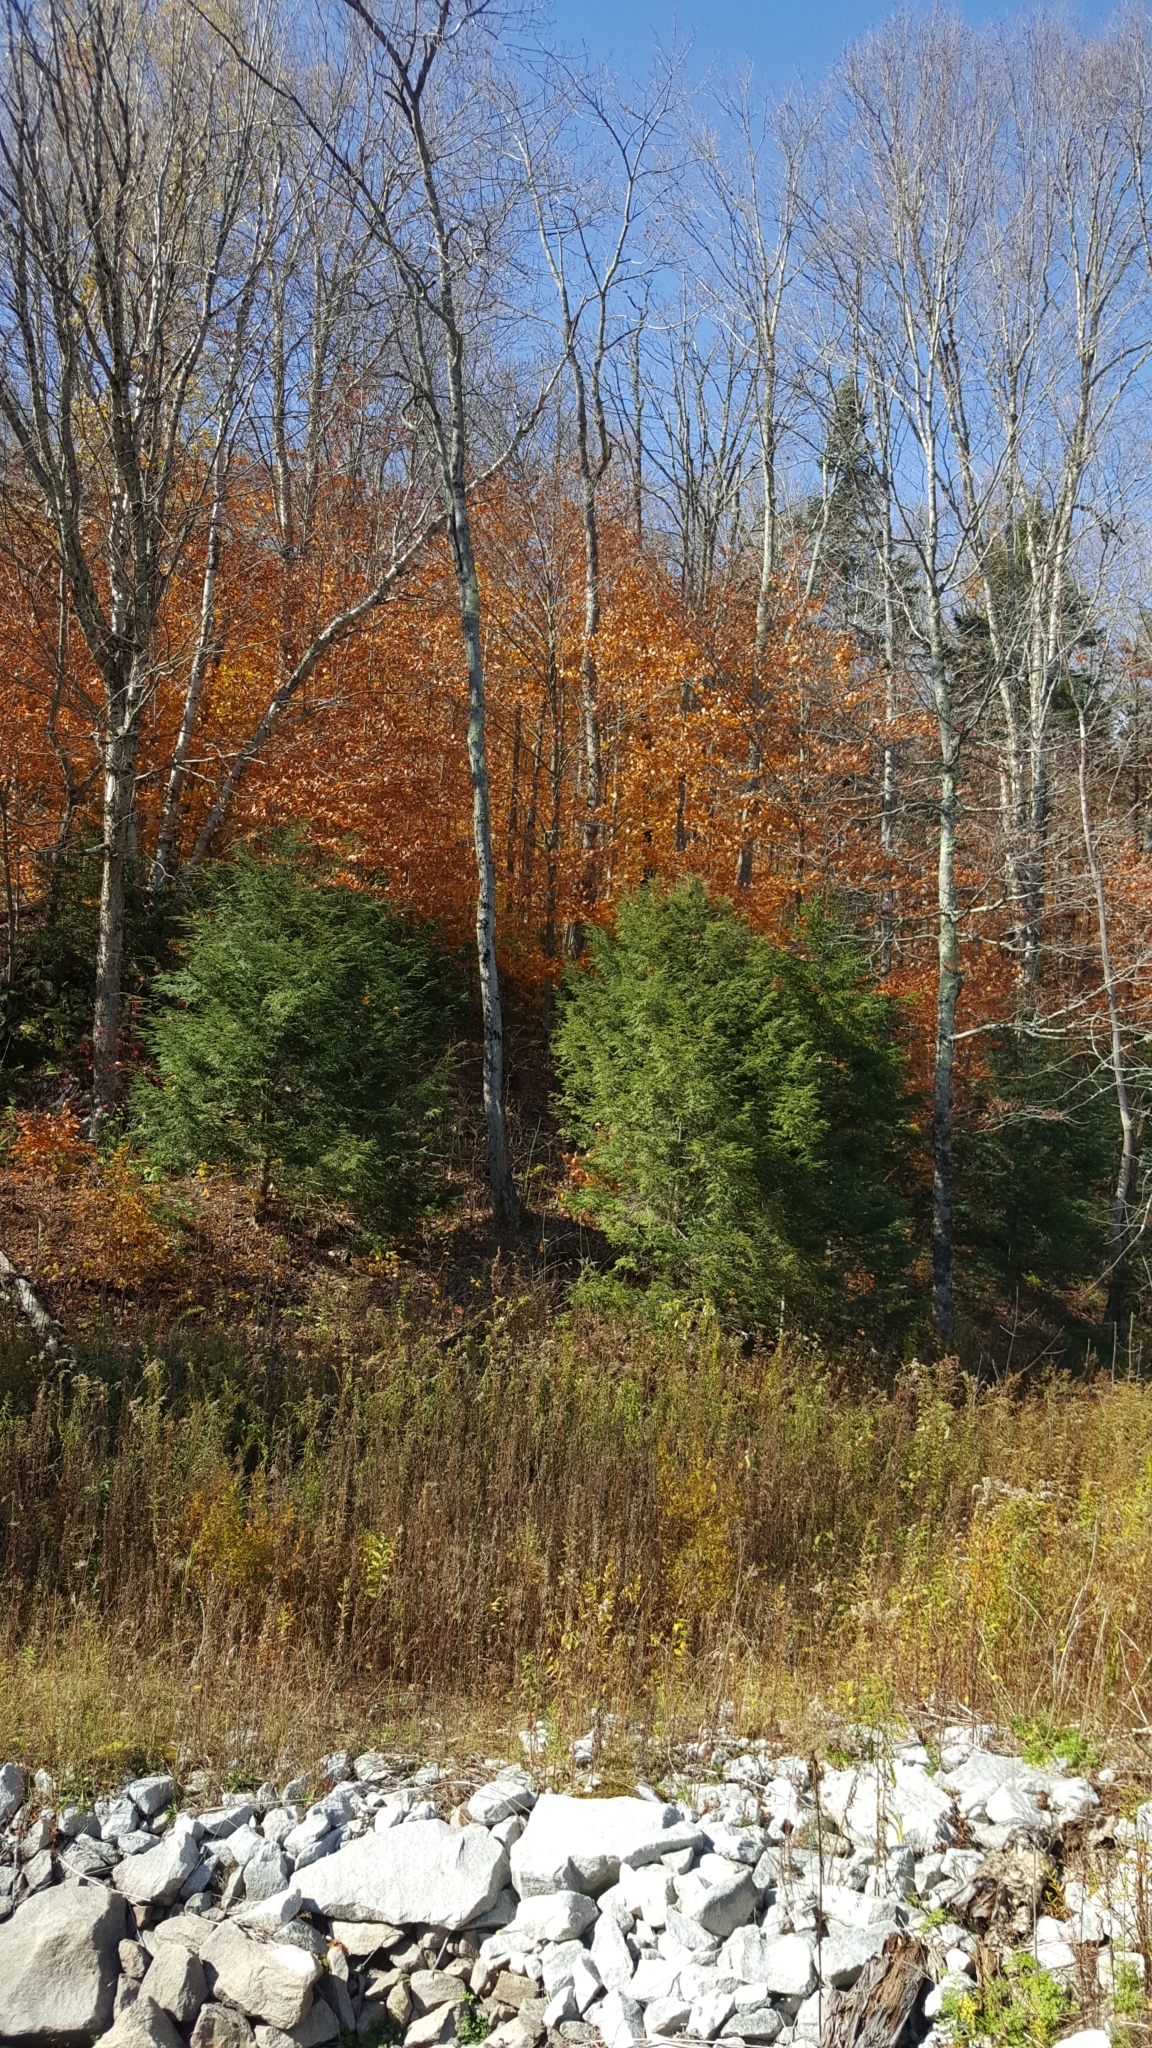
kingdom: Plantae
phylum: Tracheophyta
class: Magnoliopsida
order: Fagales
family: Fagaceae
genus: Fagus
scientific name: Fagus grandifolia
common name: American beech
